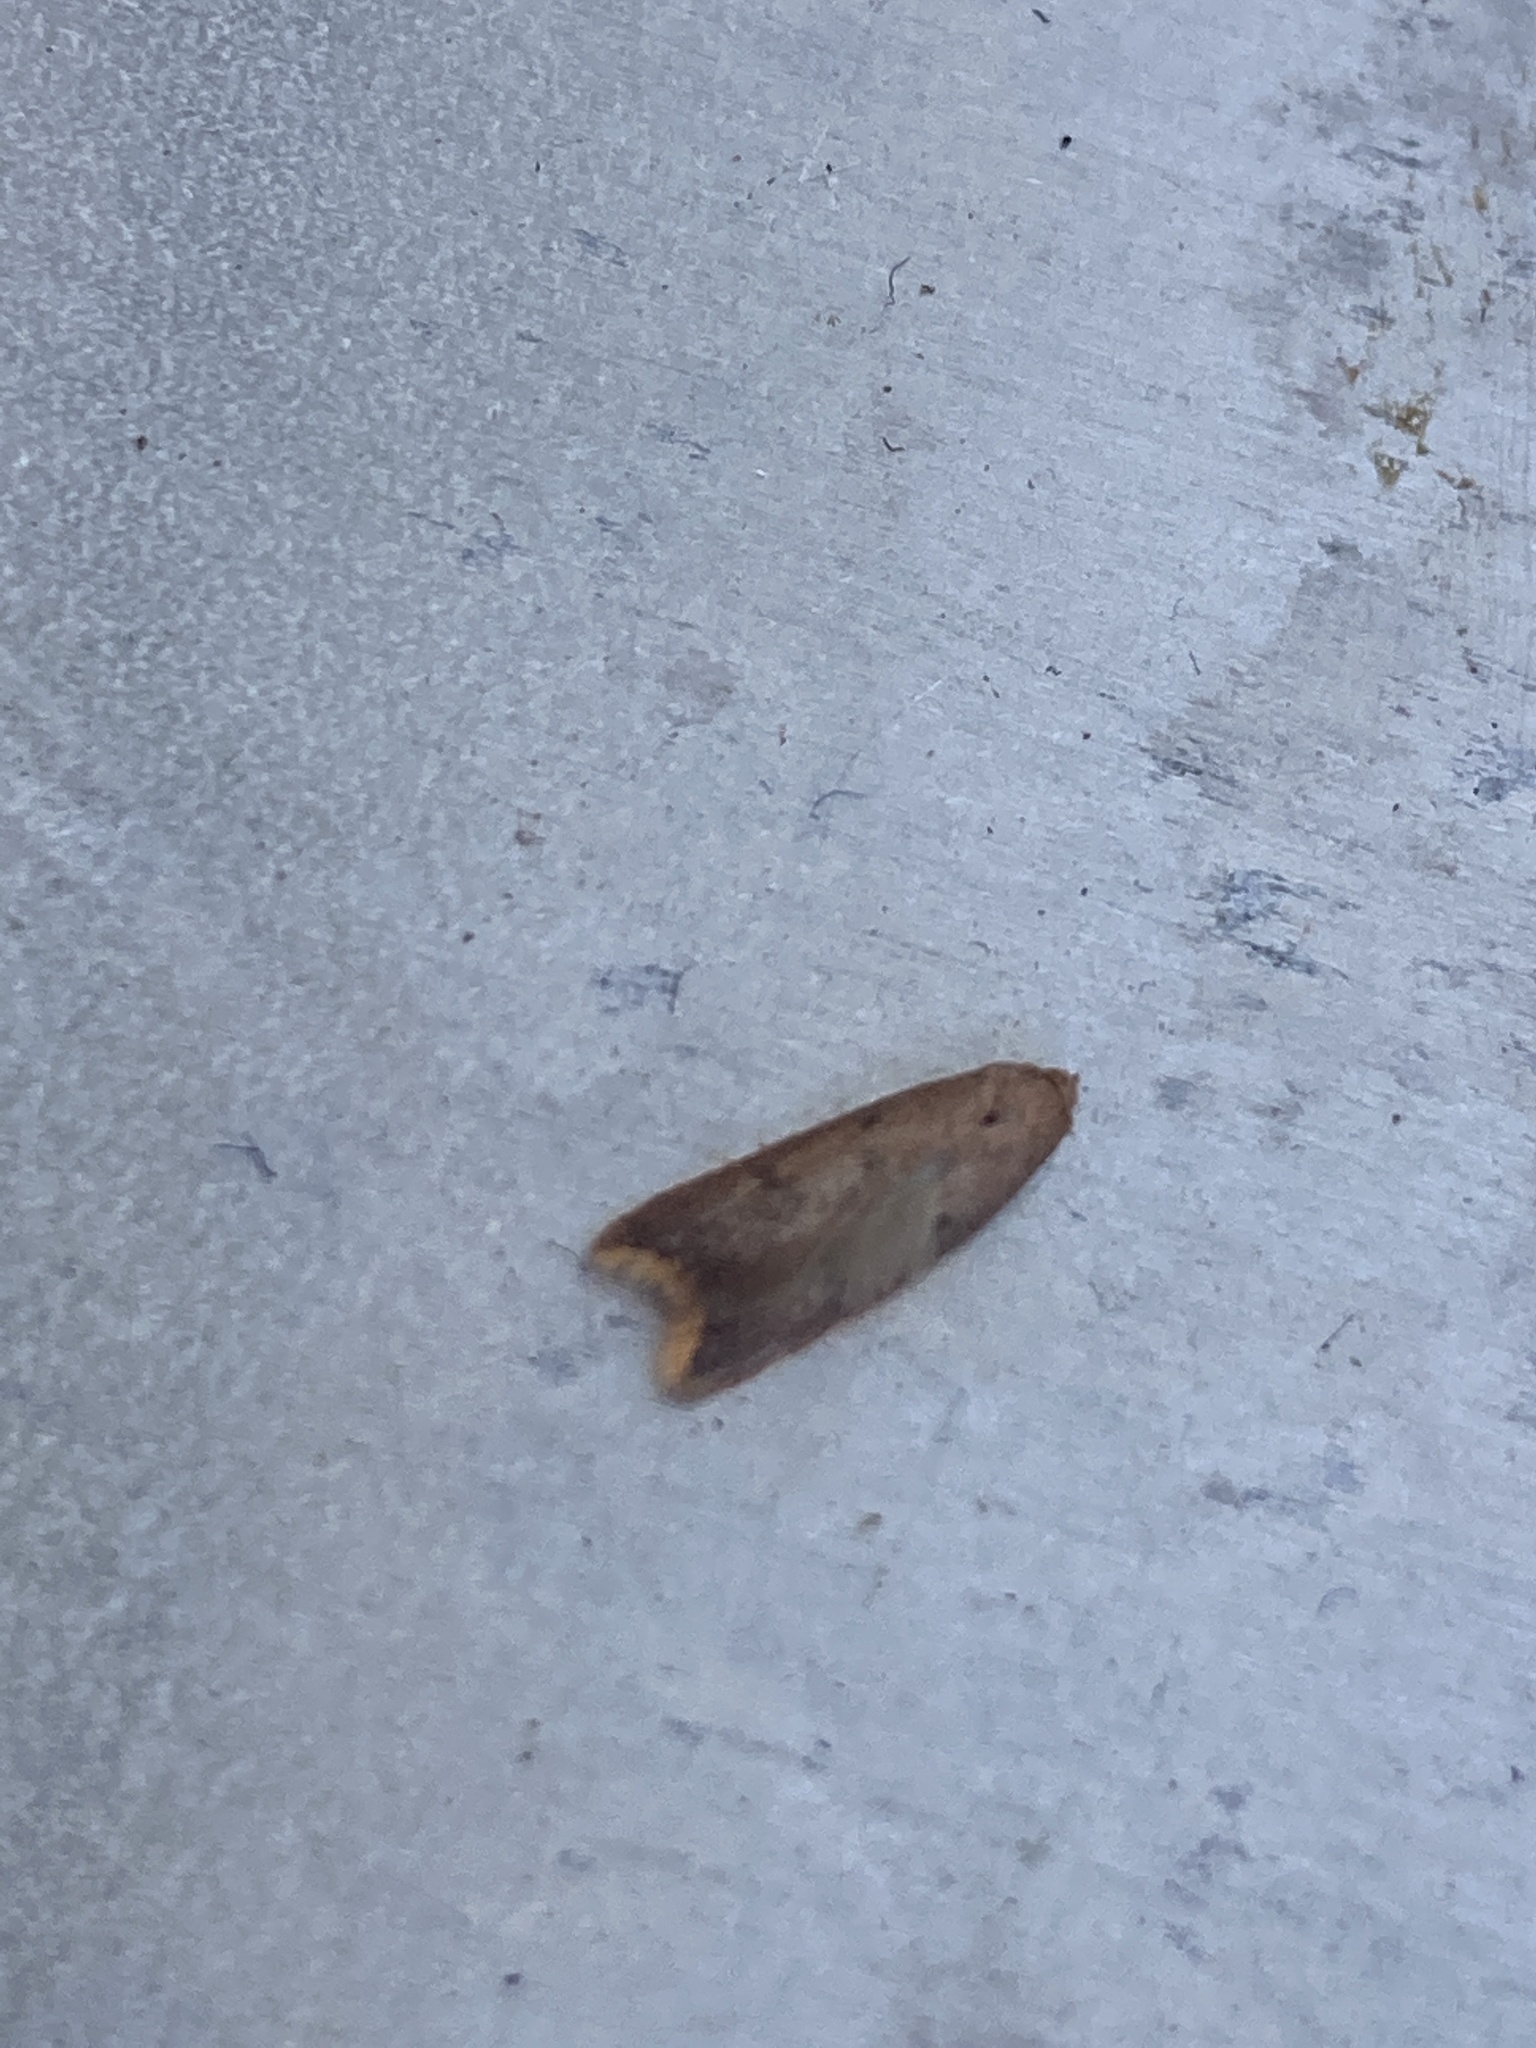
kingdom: Animalia
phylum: Arthropoda
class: Insecta
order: Lepidoptera
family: Oecophoridae
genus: Tachystola
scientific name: Tachystola acroxantha
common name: Ruddy streak
